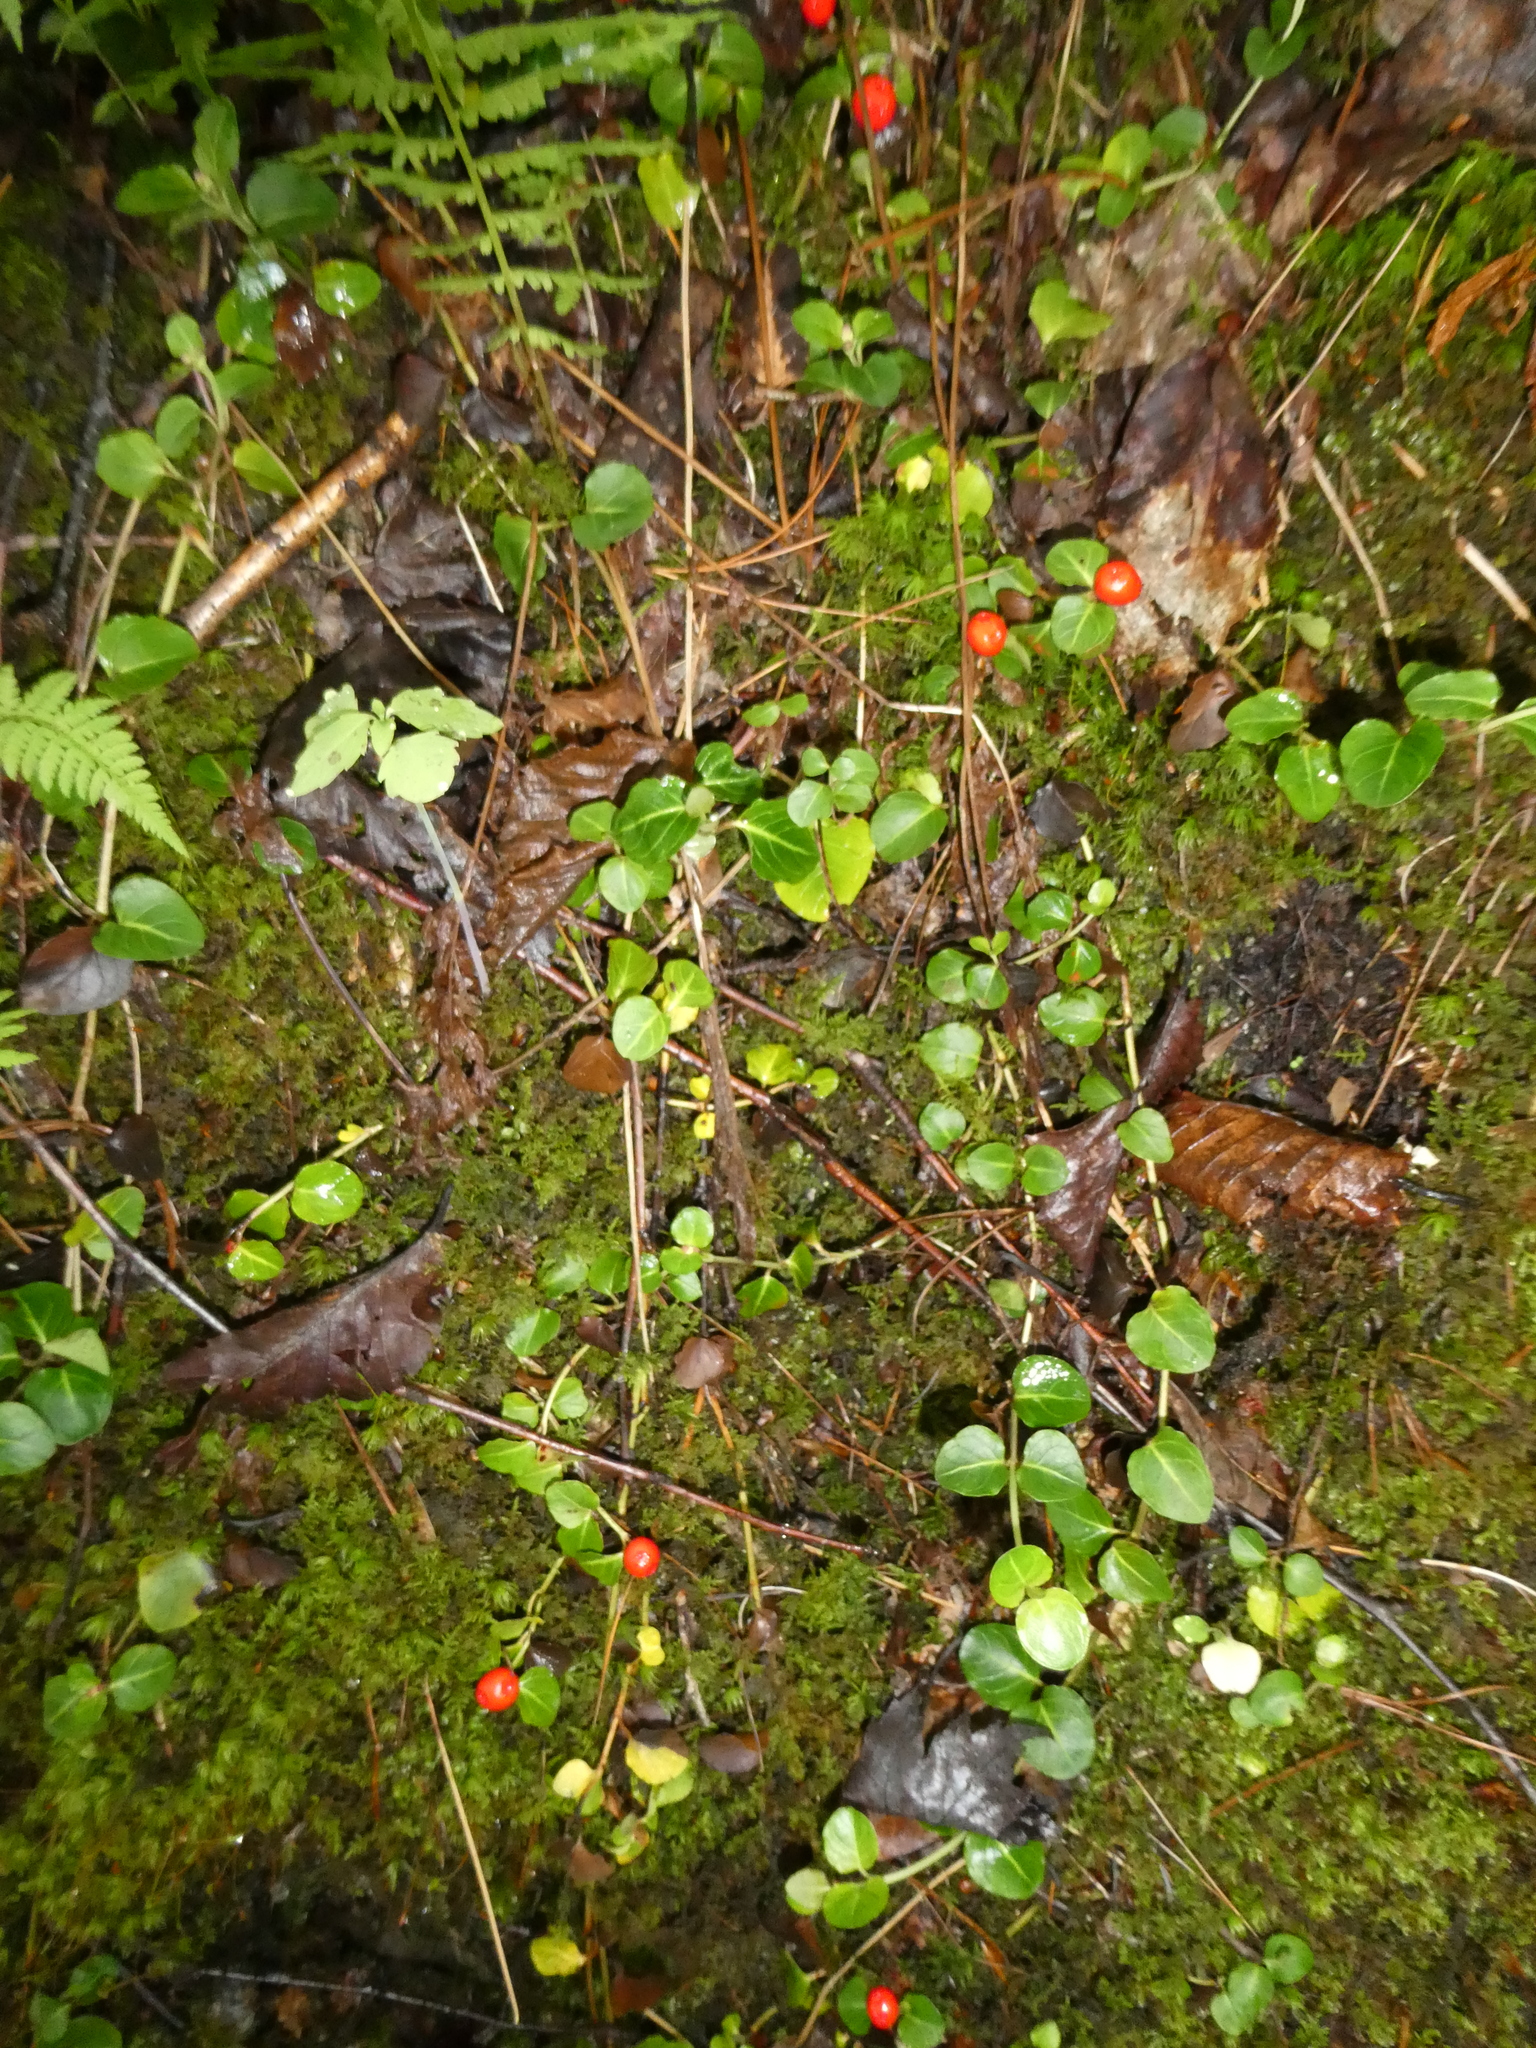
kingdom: Plantae
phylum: Tracheophyta
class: Magnoliopsida
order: Gentianales
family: Rubiaceae
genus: Mitchella
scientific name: Mitchella repens
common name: Partridge-berry
